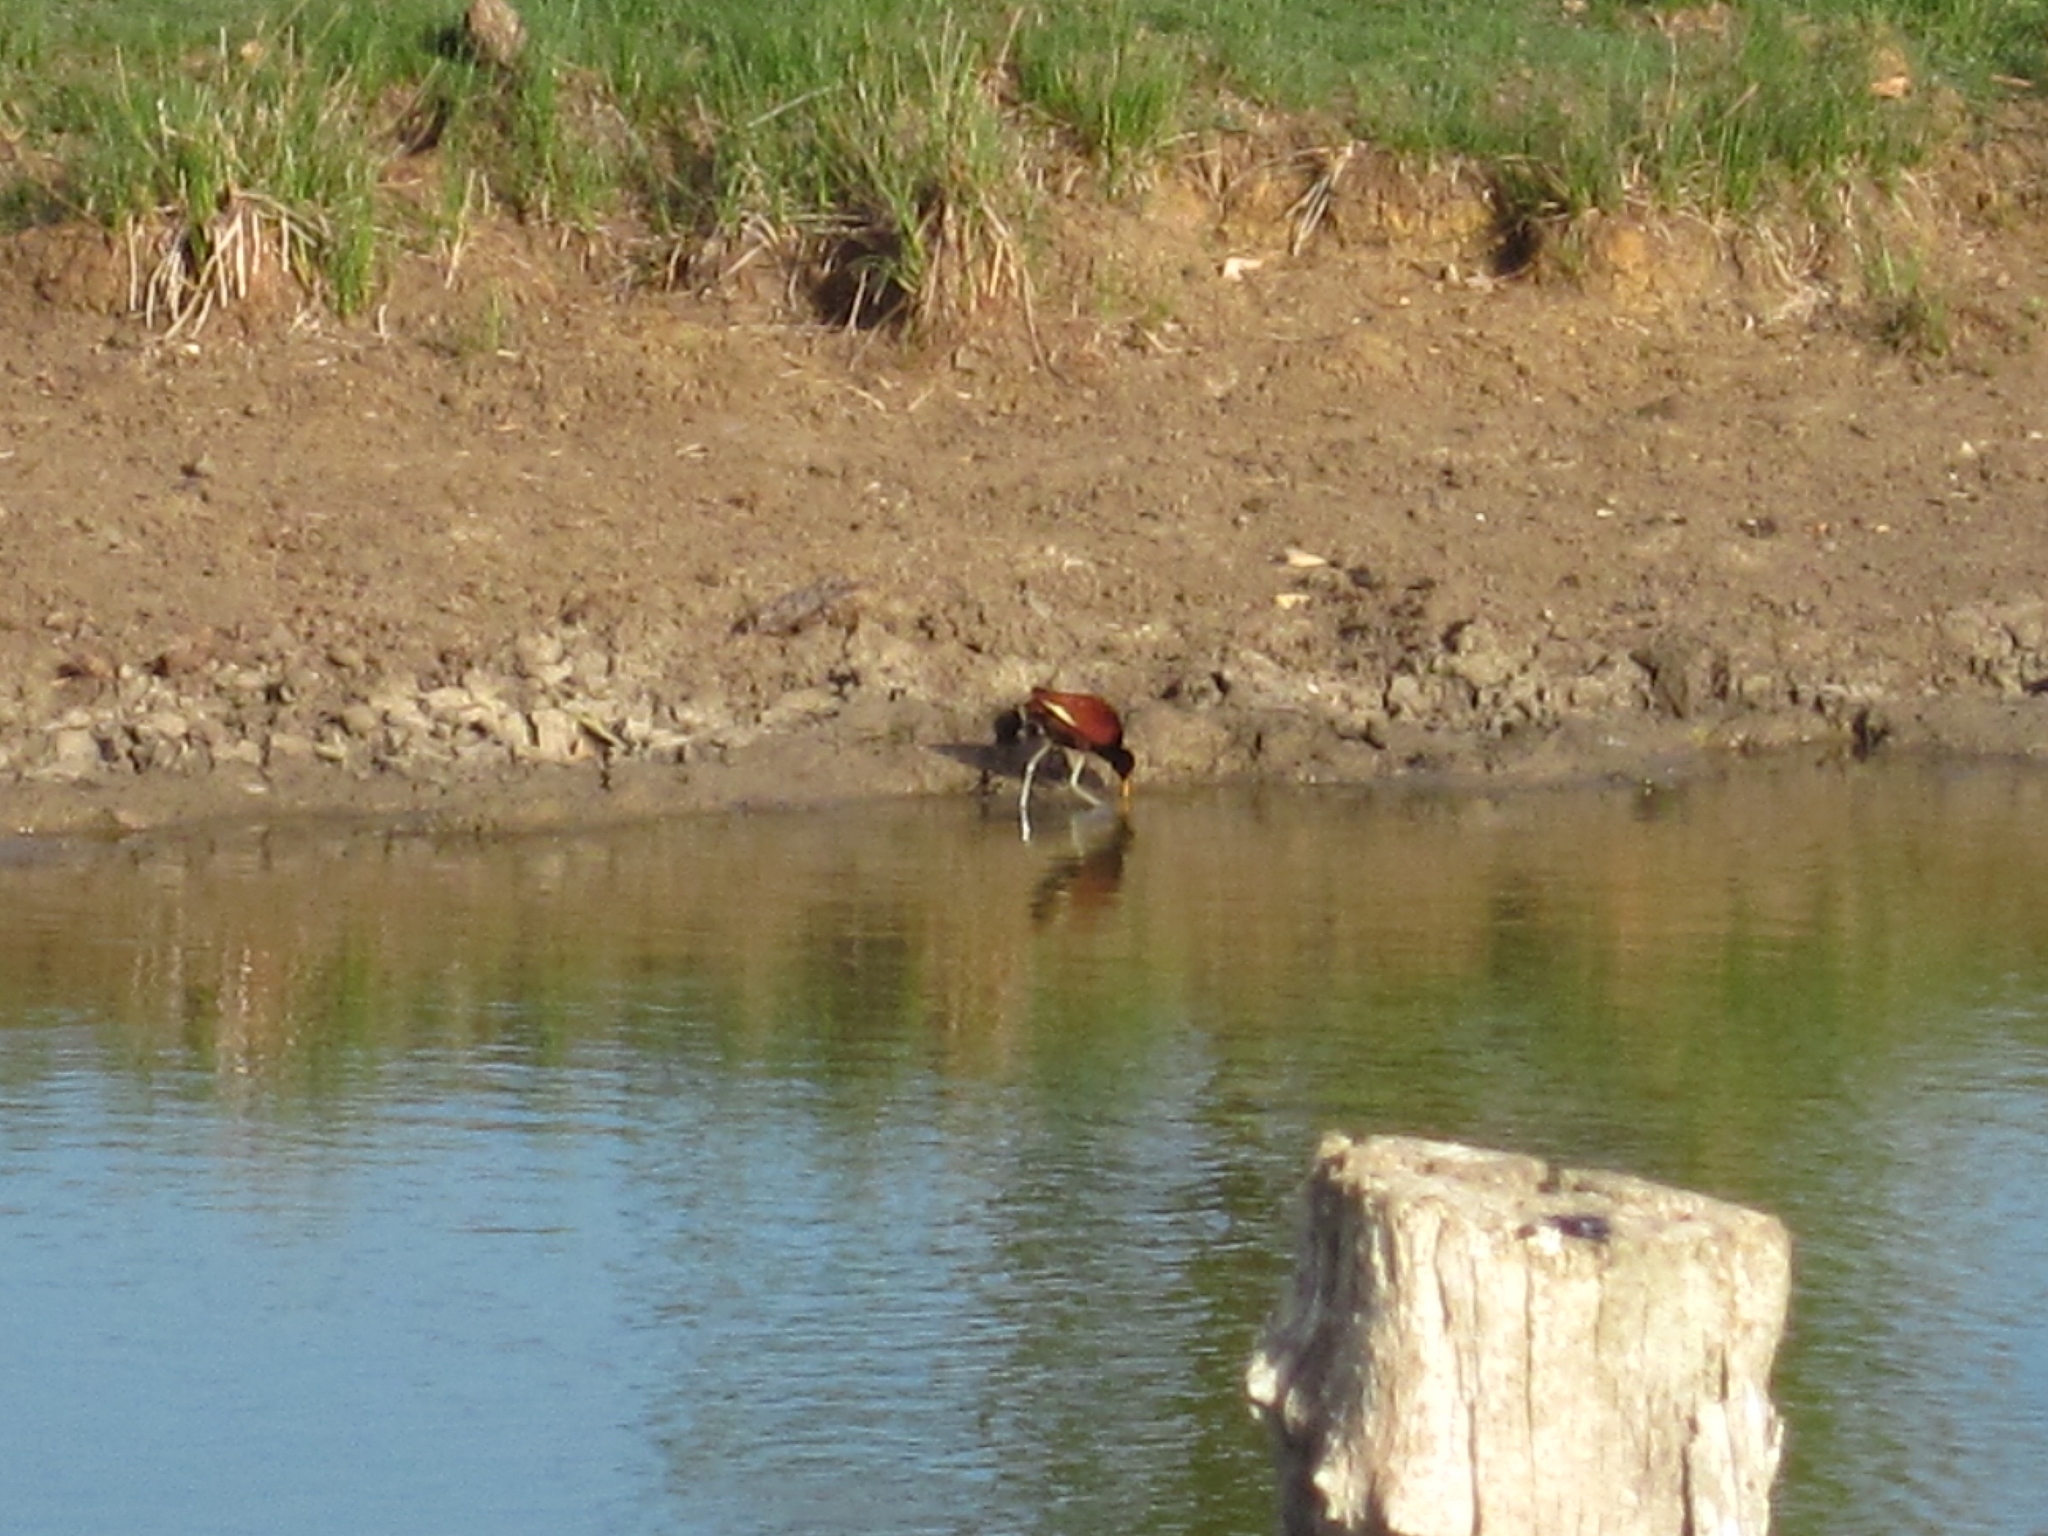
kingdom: Animalia
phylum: Chordata
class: Aves
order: Charadriiformes
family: Jacanidae
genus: Jacana
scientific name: Jacana spinosa
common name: Northern jacana
